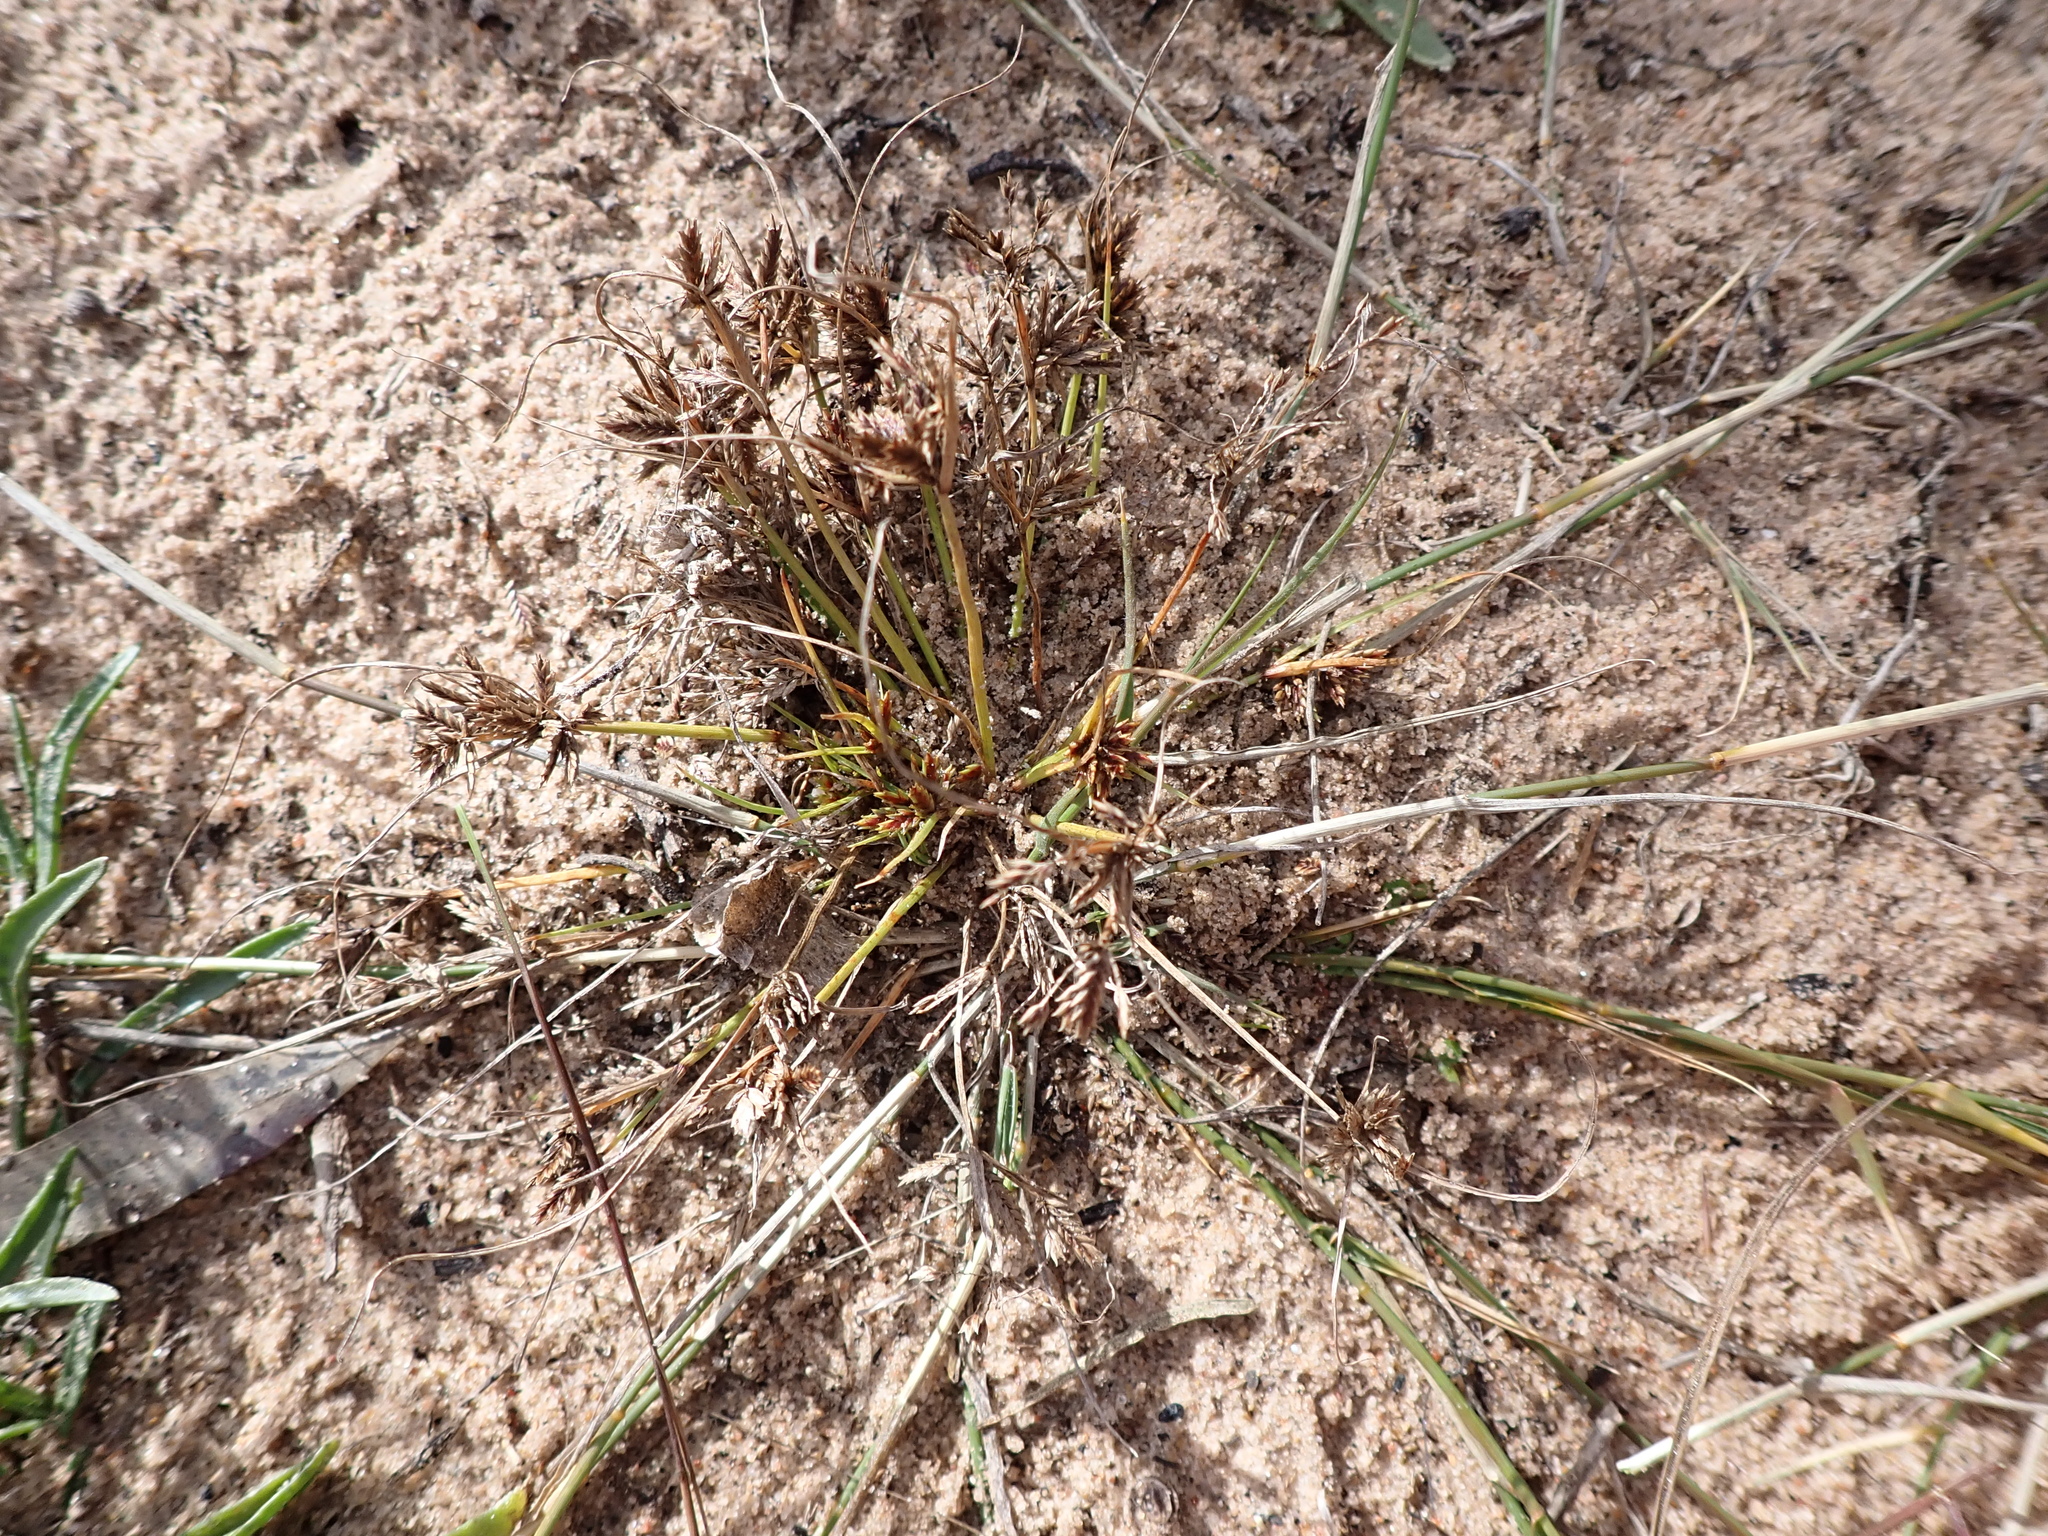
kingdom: Plantae
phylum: Tracheophyta
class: Liliopsida
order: Poales
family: Cyperaceae
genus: Cyperus
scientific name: Cyperus rigidellus
